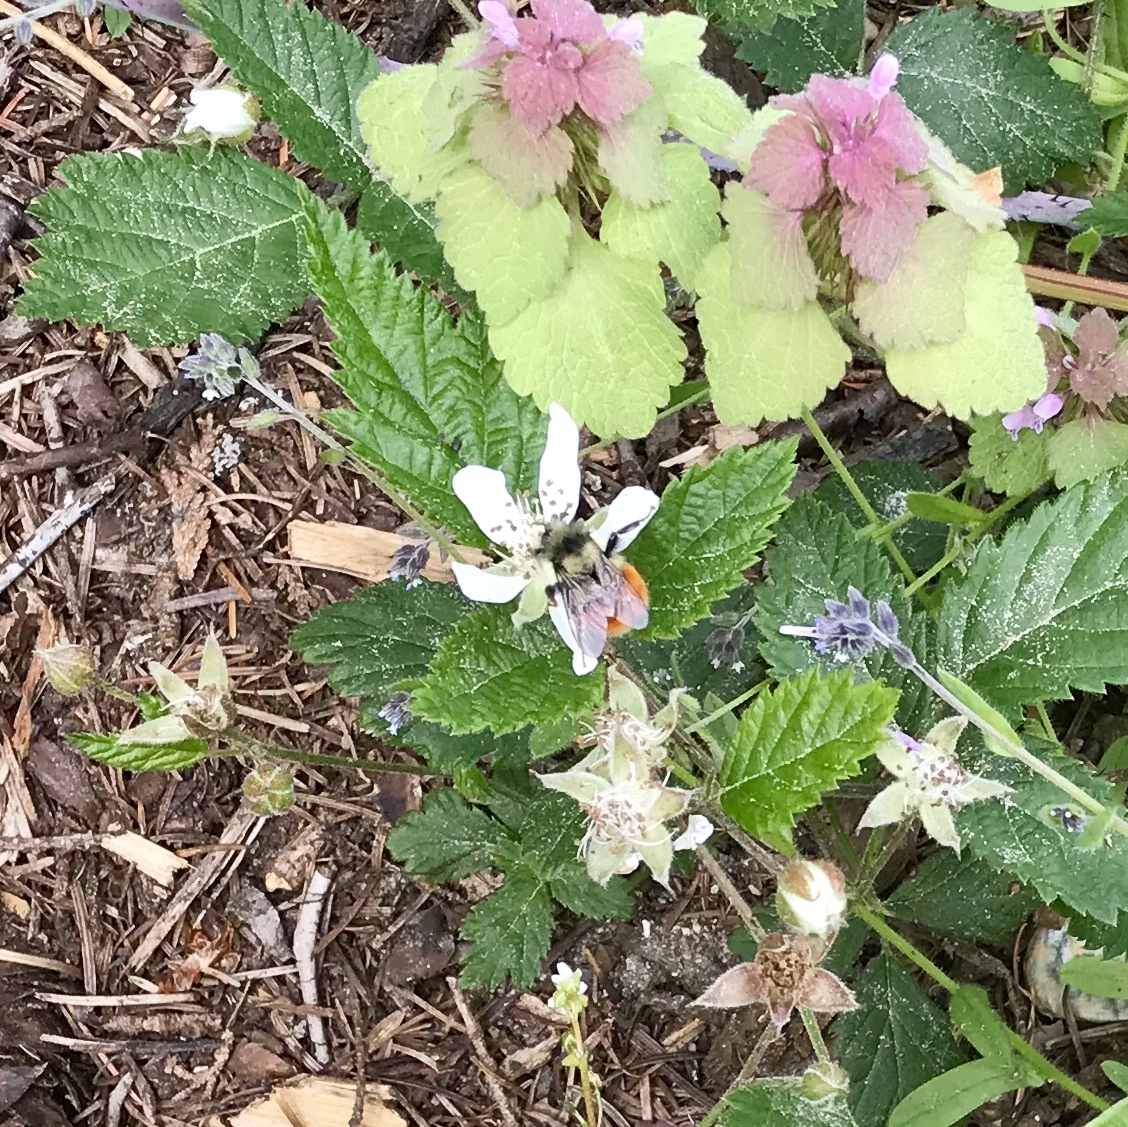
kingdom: Animalia
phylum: Arthropoda
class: Insecta
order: Hymenoptera
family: Apidae
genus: Bombus
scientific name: Bombus melanopygus
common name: Black tail bumble bee
